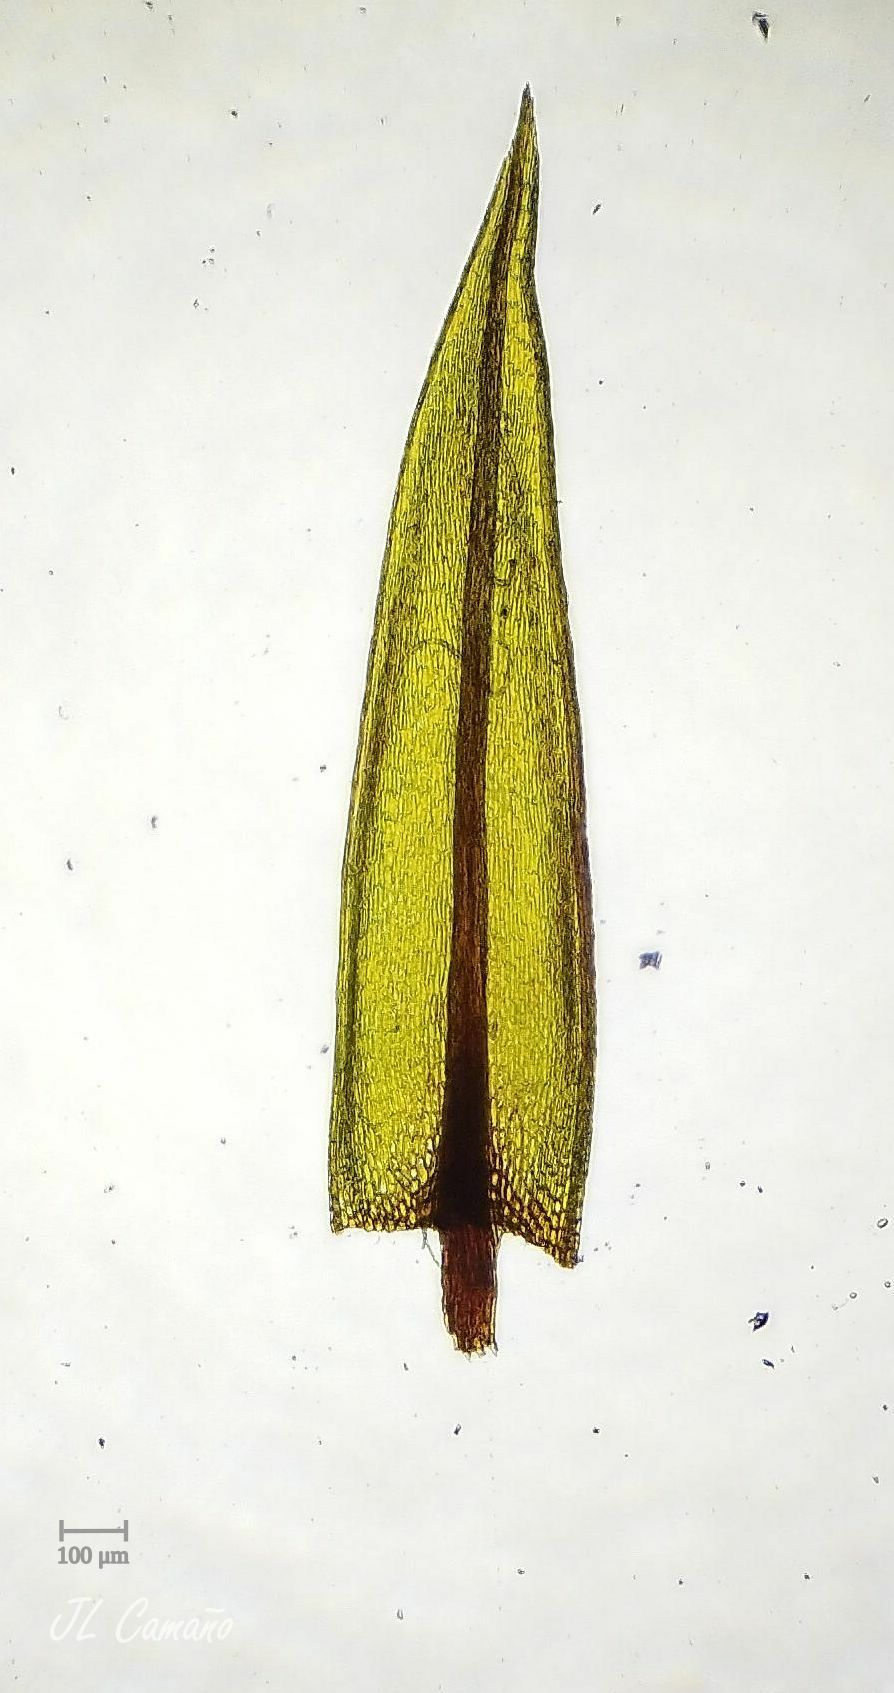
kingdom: Plantae
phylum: Bryophyta
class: Bryopsida
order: Bryales
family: Bryaceae
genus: Imbribryum
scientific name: Imbribryum alpinum
